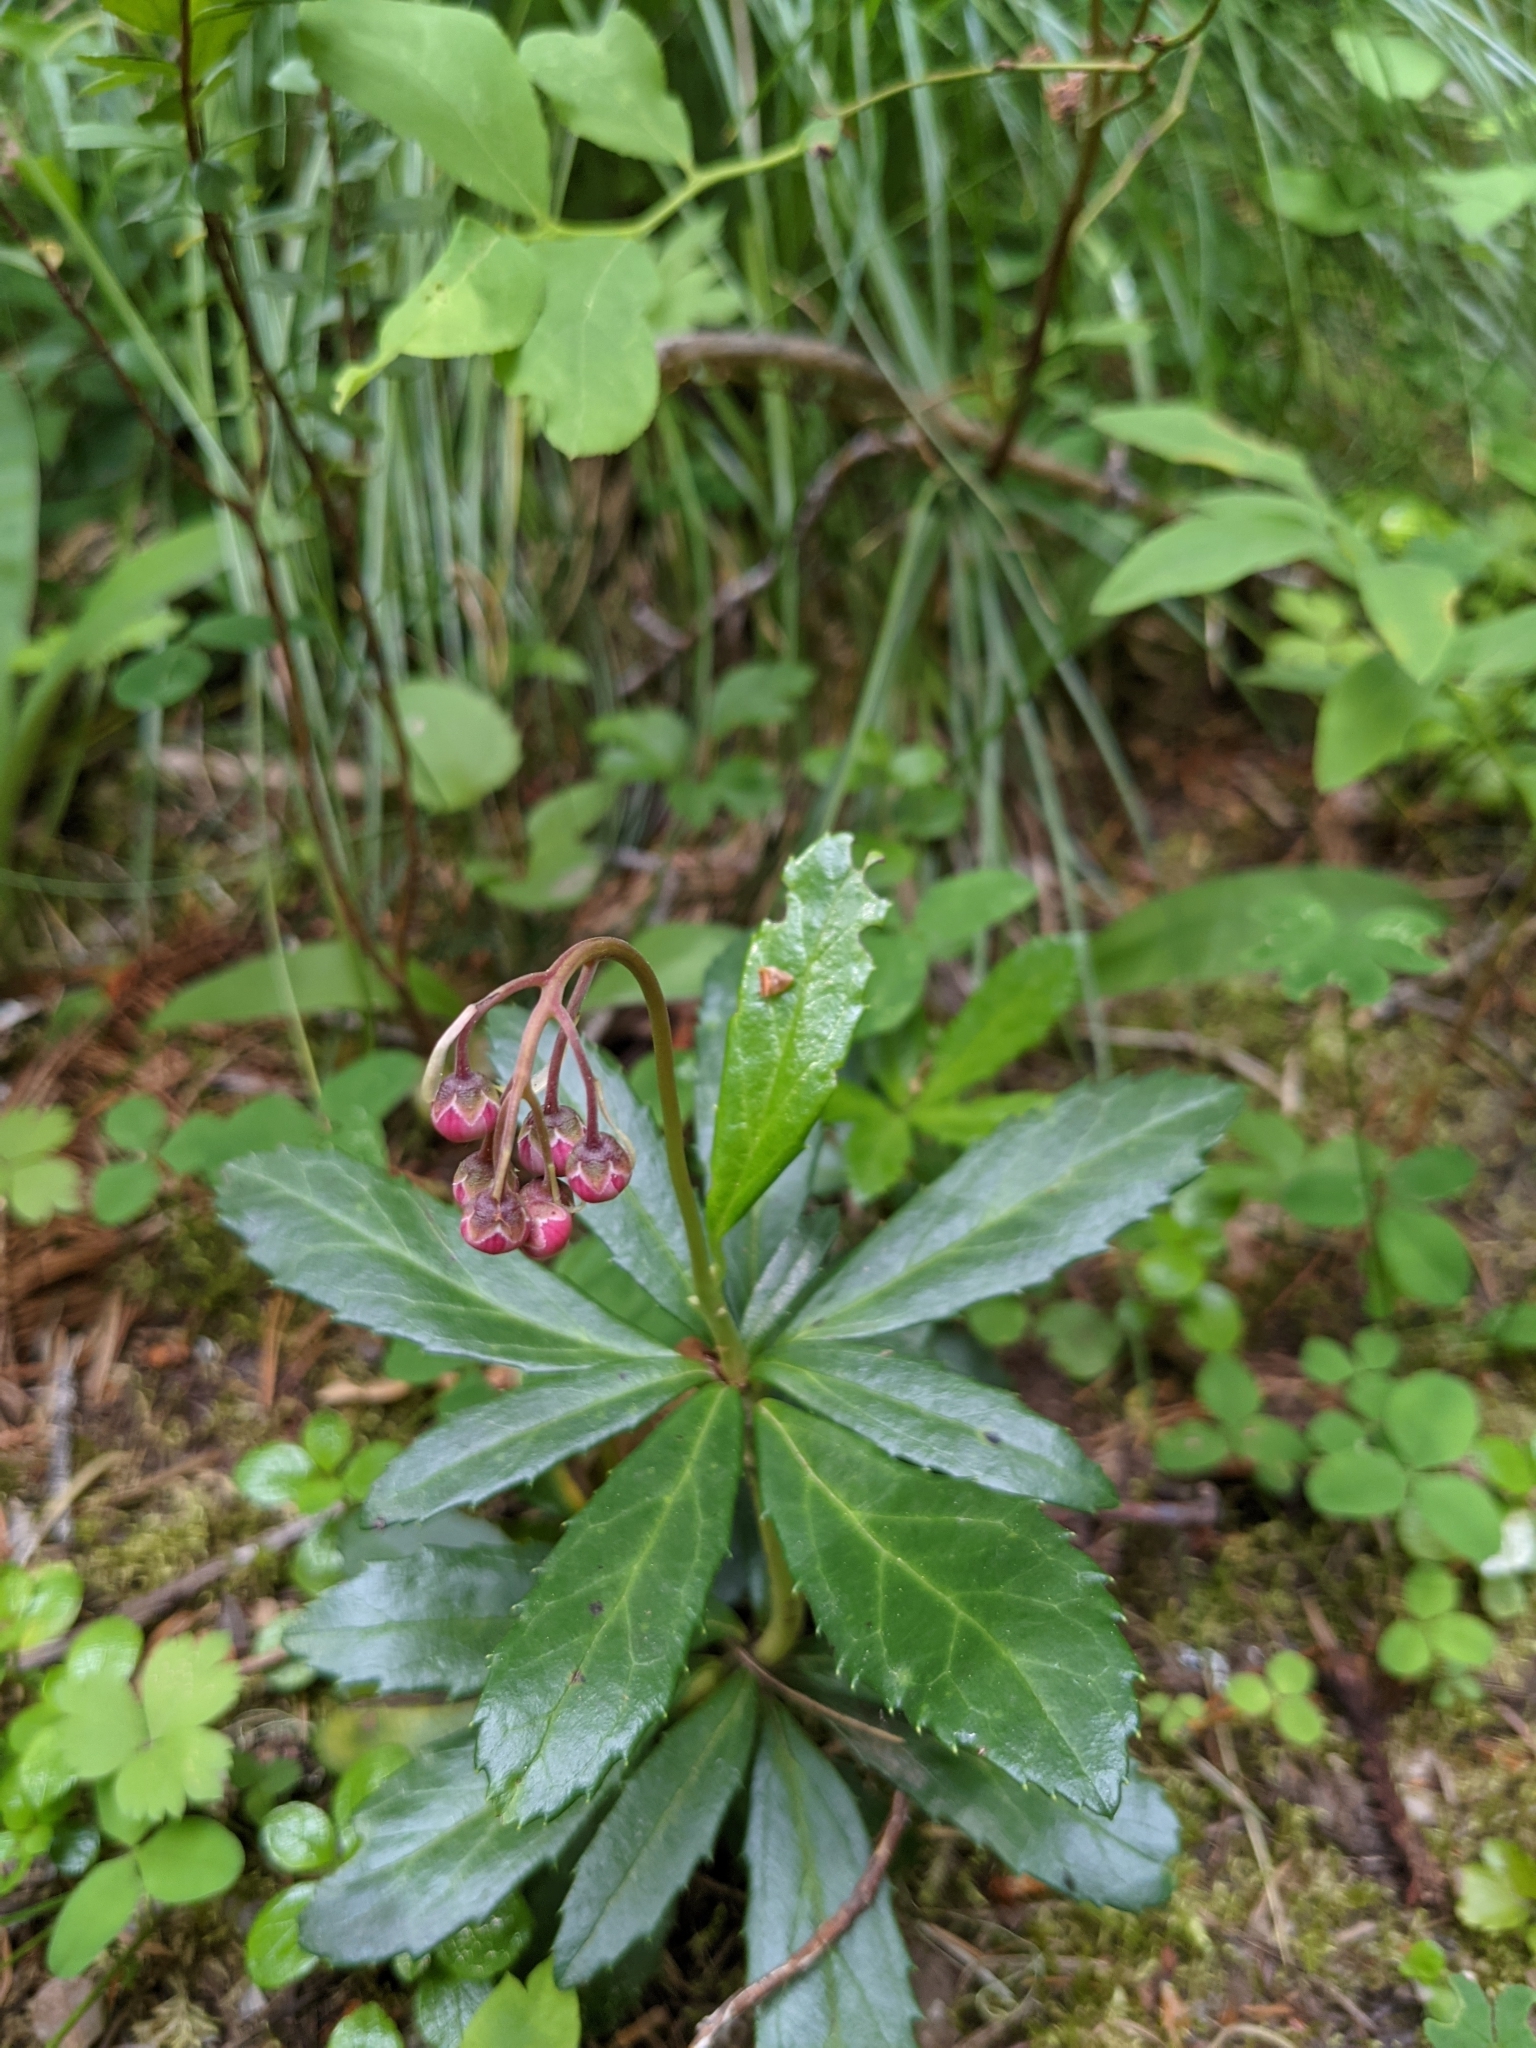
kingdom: Plantae
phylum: Tracheophyta
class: Magnoliopsida
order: Ericales
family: Ericaceae
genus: Chimaphila
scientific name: Chimaphila umbellata
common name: Pipsissewa
